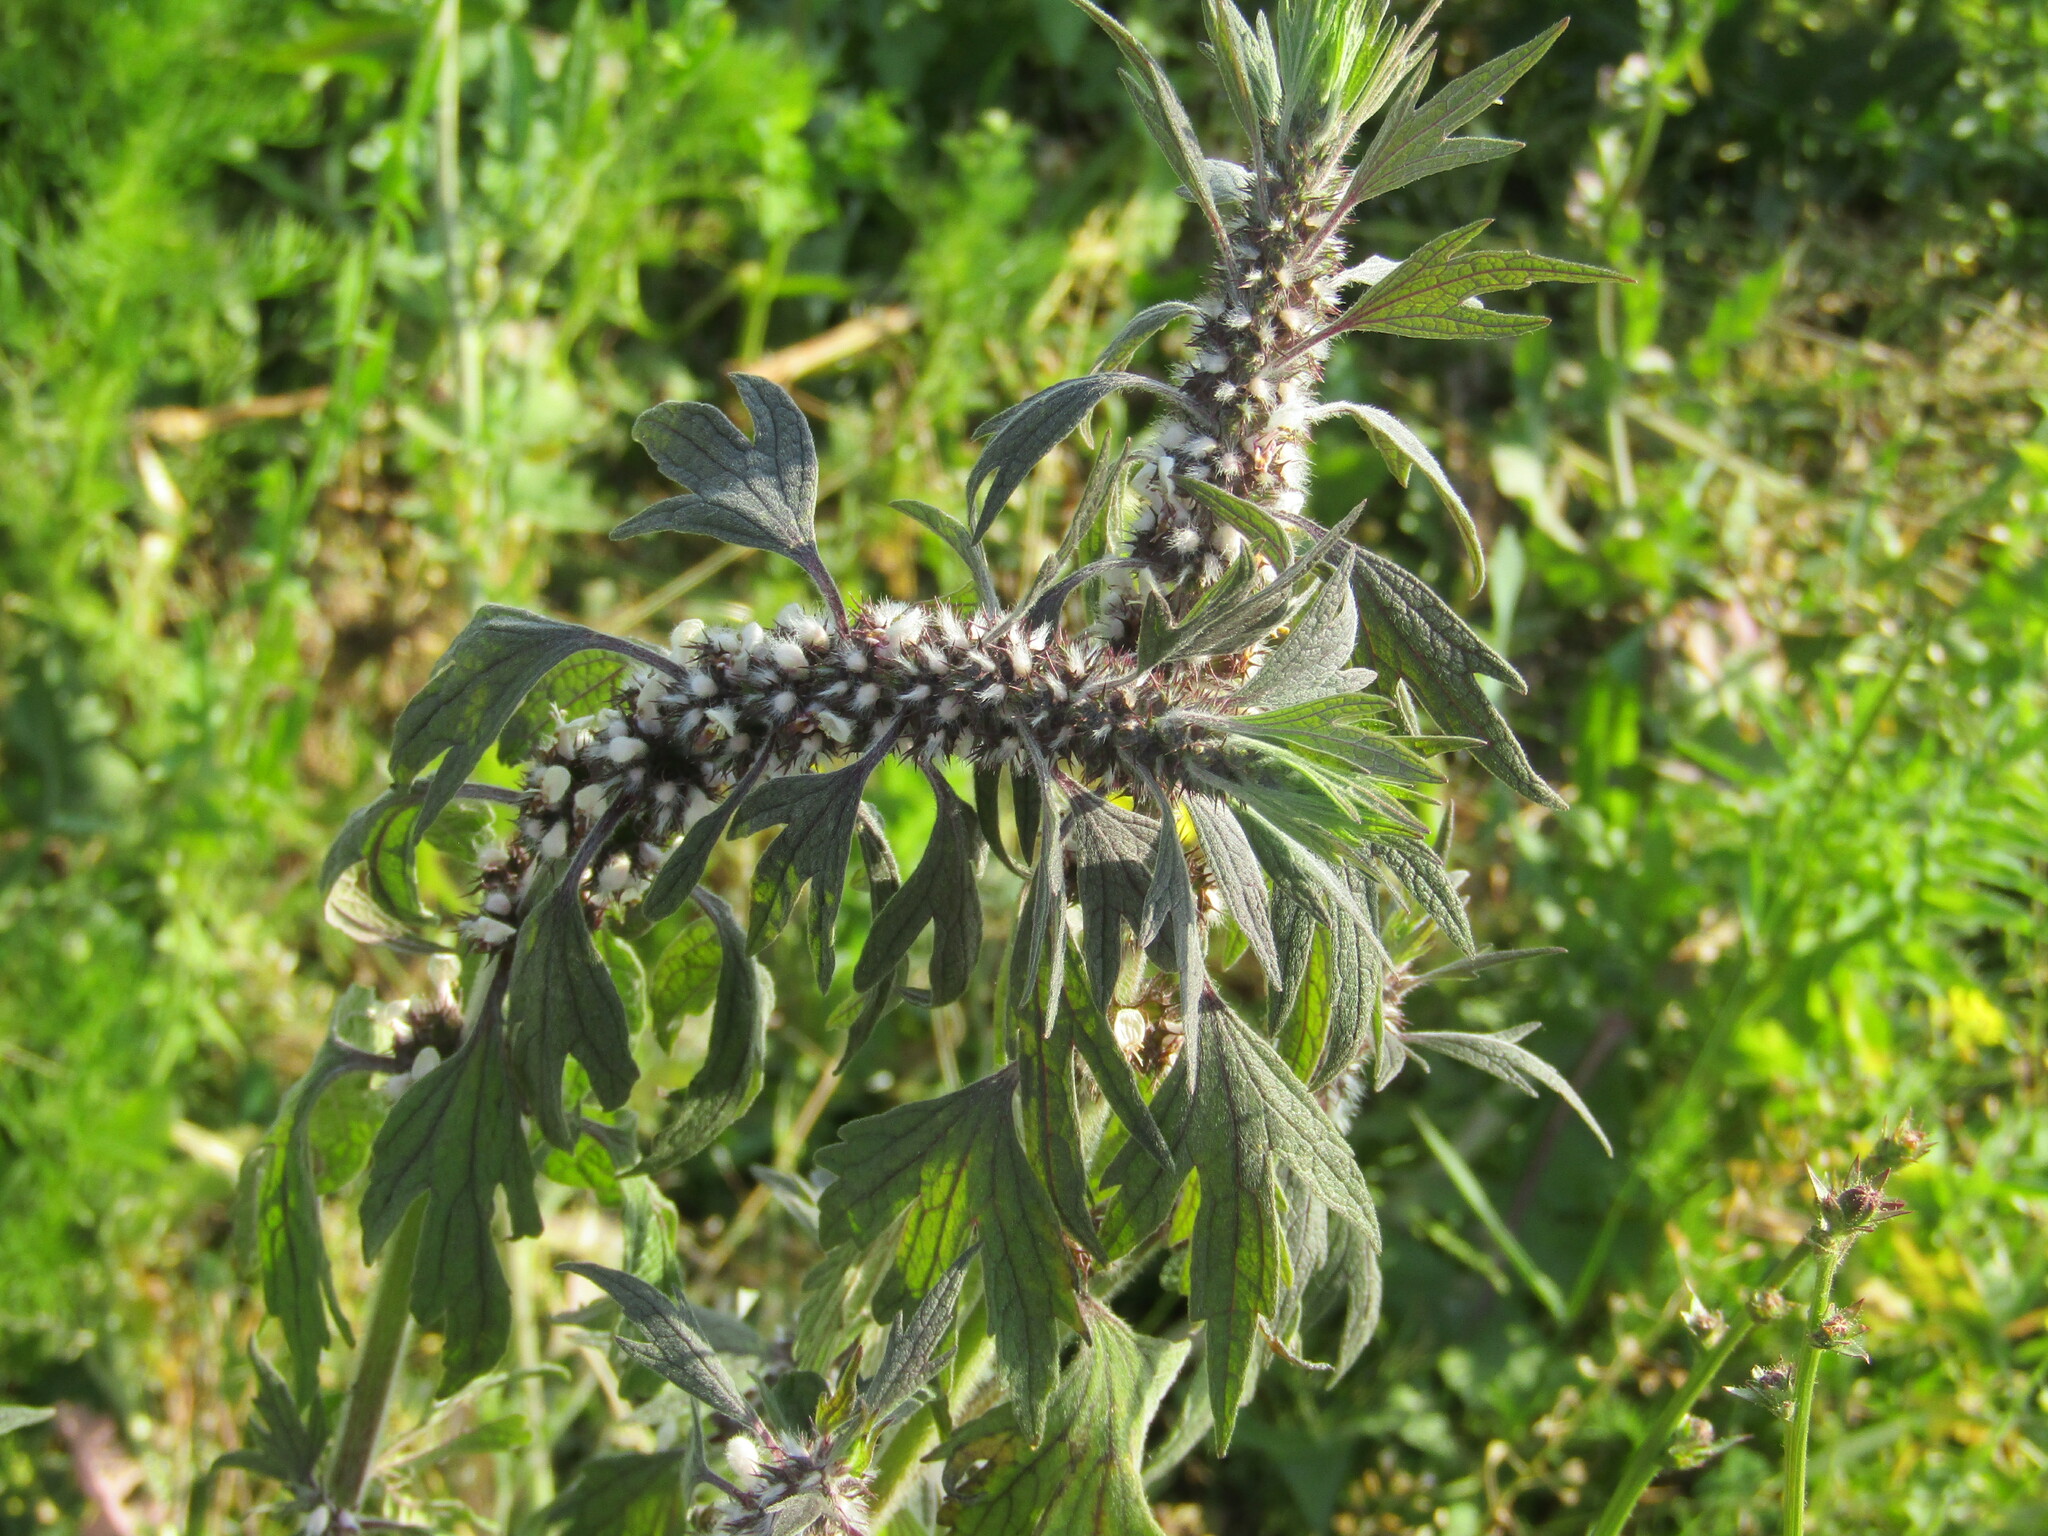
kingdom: Plantae
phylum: Tracheophyta
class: Magnoliopsida
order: Lamiales
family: Lamiaceae
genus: Leonurus
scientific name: Leonurus quinquelobatus
